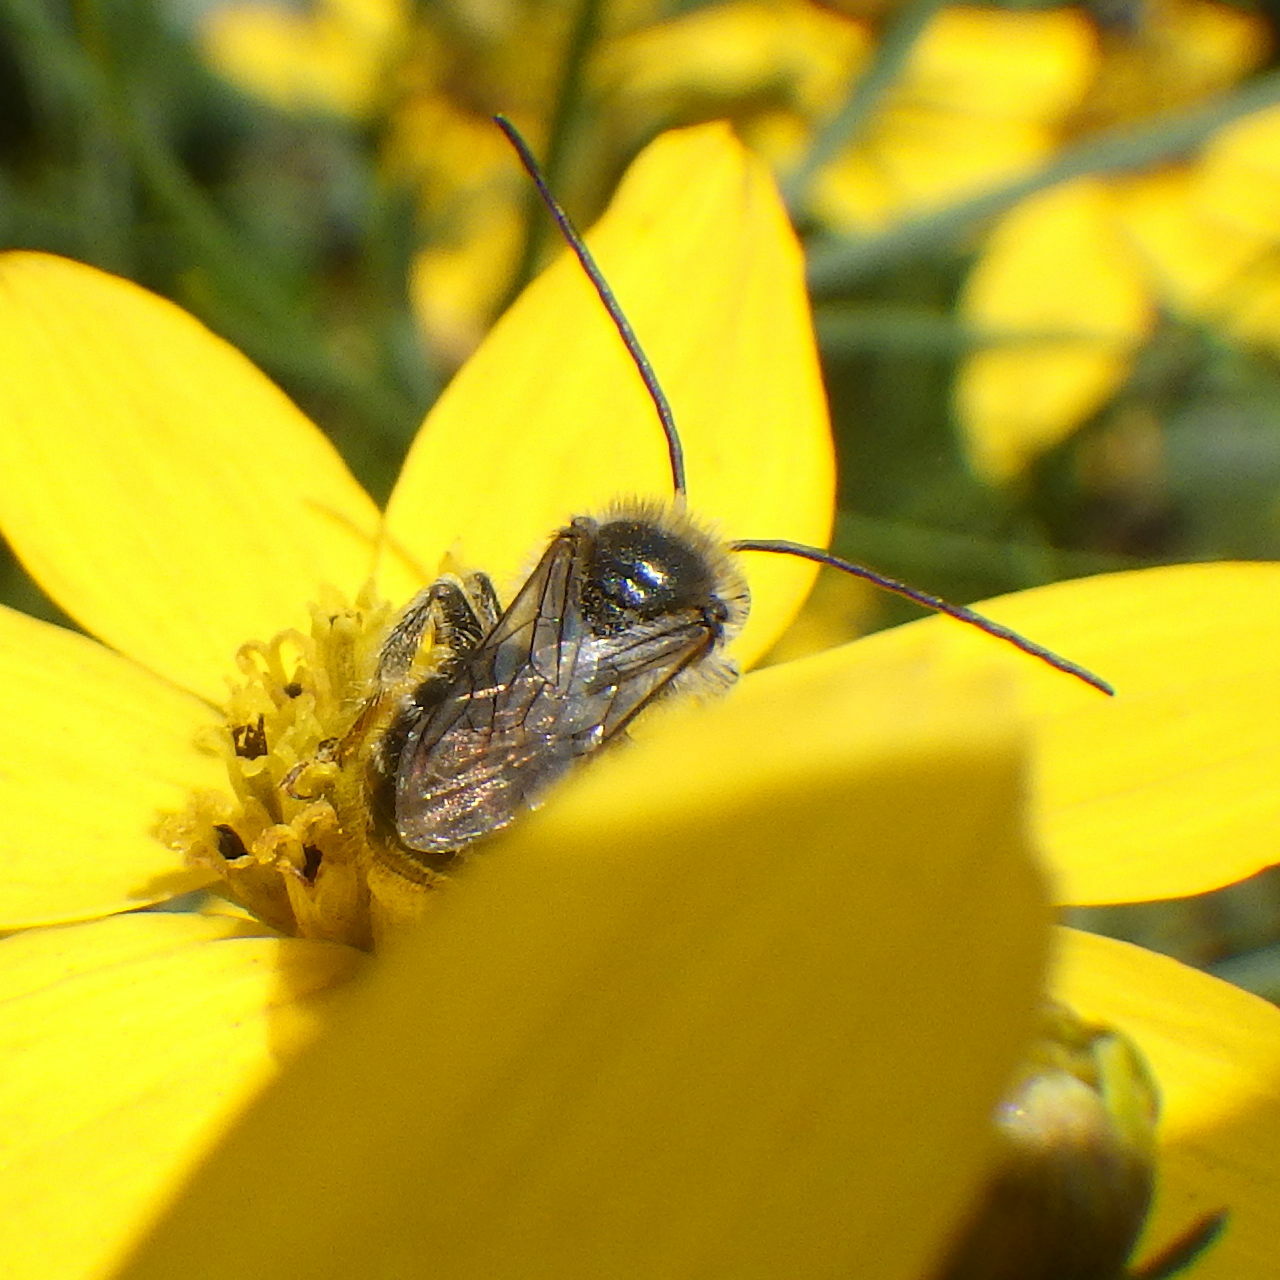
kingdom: Animalia
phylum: Arthropoda
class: Insecta
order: Hymenoptera
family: Apidae
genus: Melissodes
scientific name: Melissodes illatus
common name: Valiant long-horned bee
